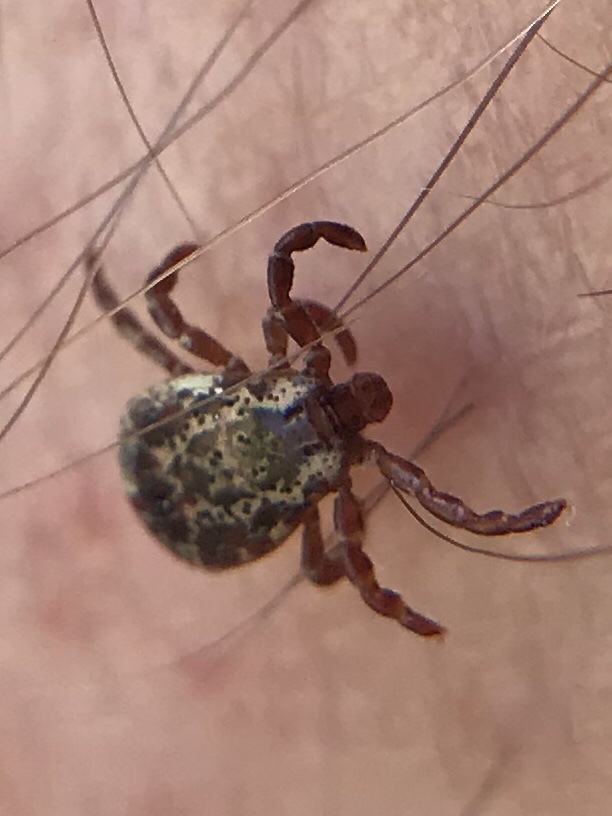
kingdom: Animalia
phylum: Arthropoda
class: Arachnida
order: Ixodida
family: Ixodidae
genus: Dermacentor
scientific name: Dermacentor variabilis
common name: American dog tick
